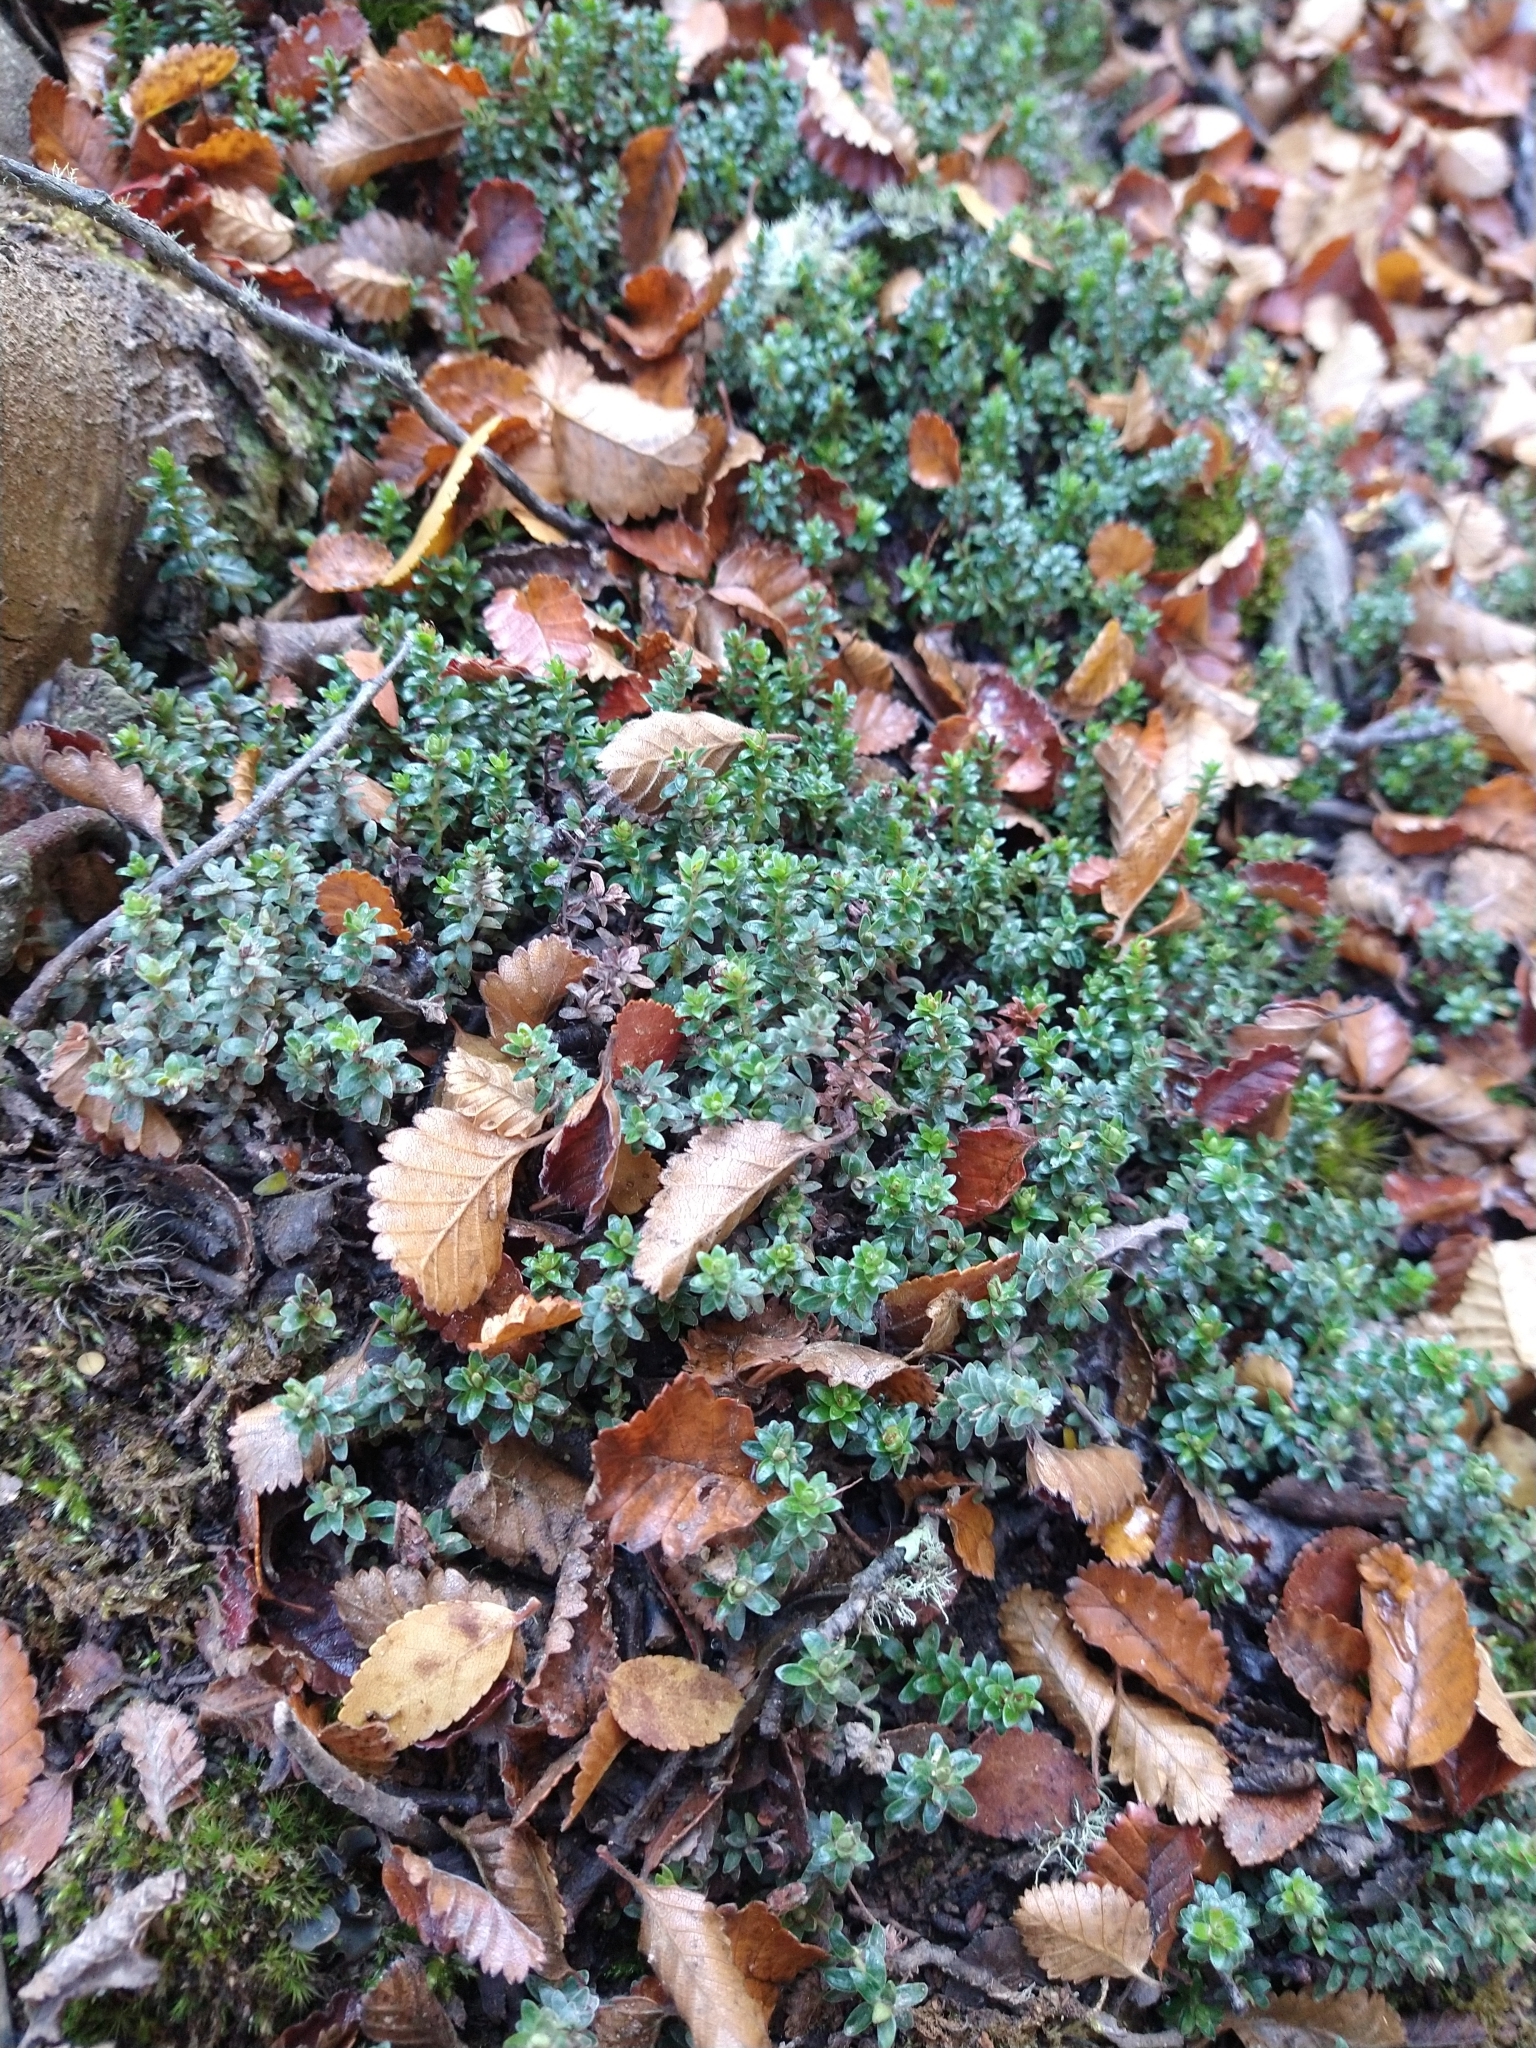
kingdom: Plantae
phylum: Tracheophyta
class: Magnoliopsida
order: Ericales
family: Ericaceae
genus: Gaultheria
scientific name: Gaultheria pumila
